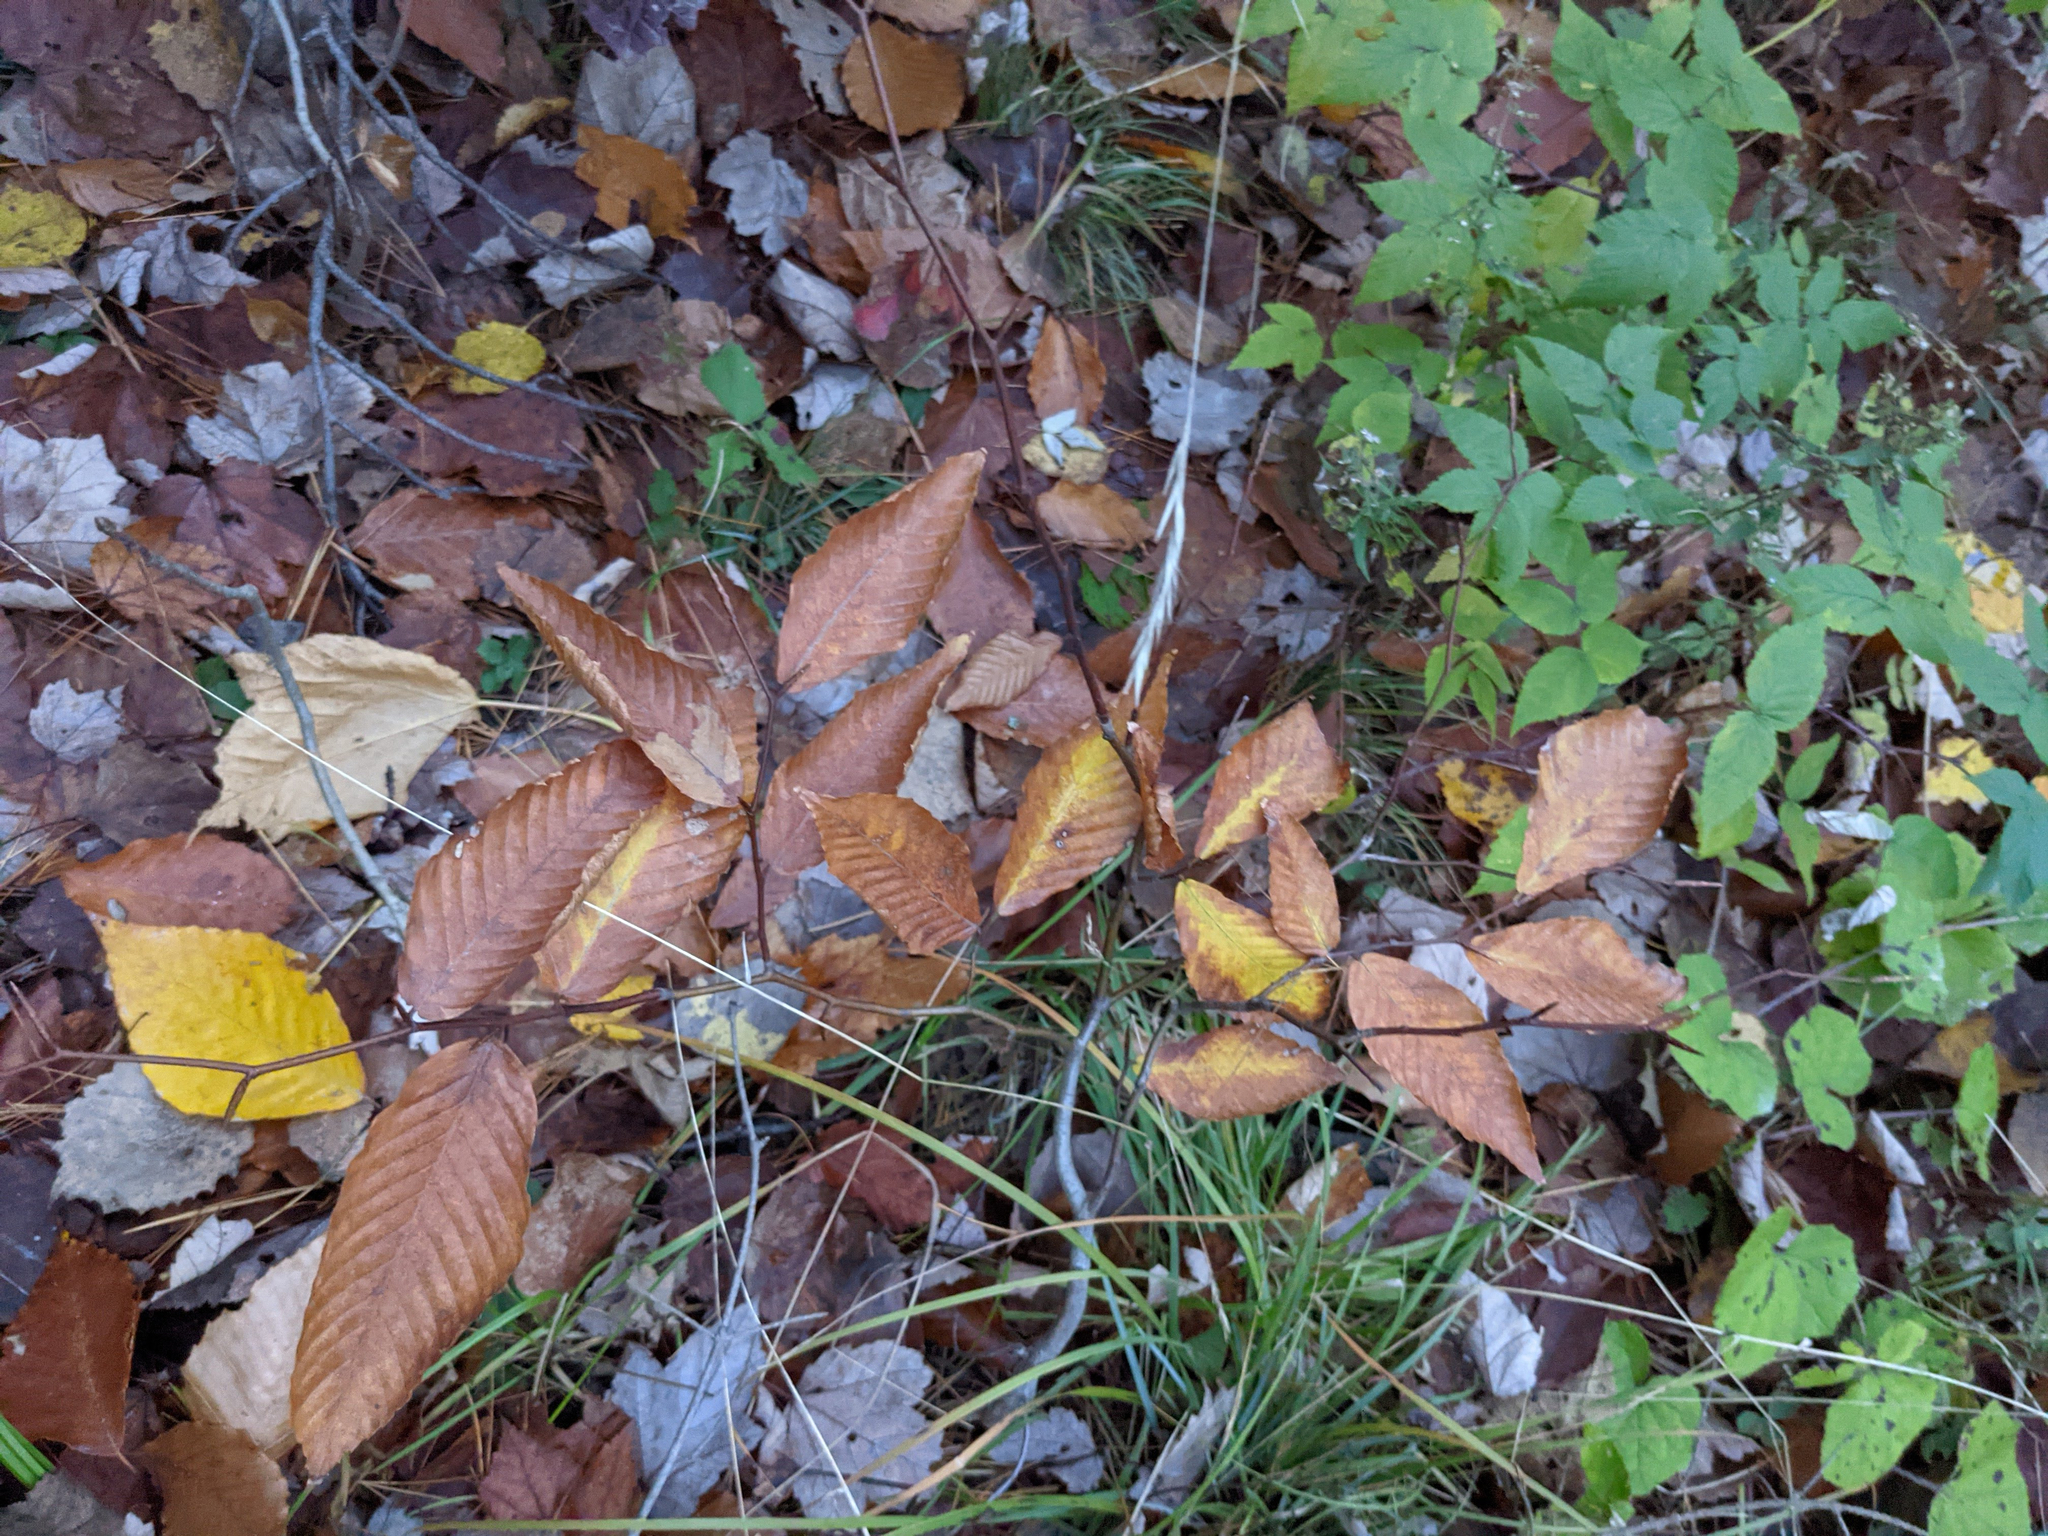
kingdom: Plantae
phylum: Tracheophyta
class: Magnoliopsida
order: Fagales
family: Fagaceae
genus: Fagus
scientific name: Fagus grandifolia
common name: American beech
